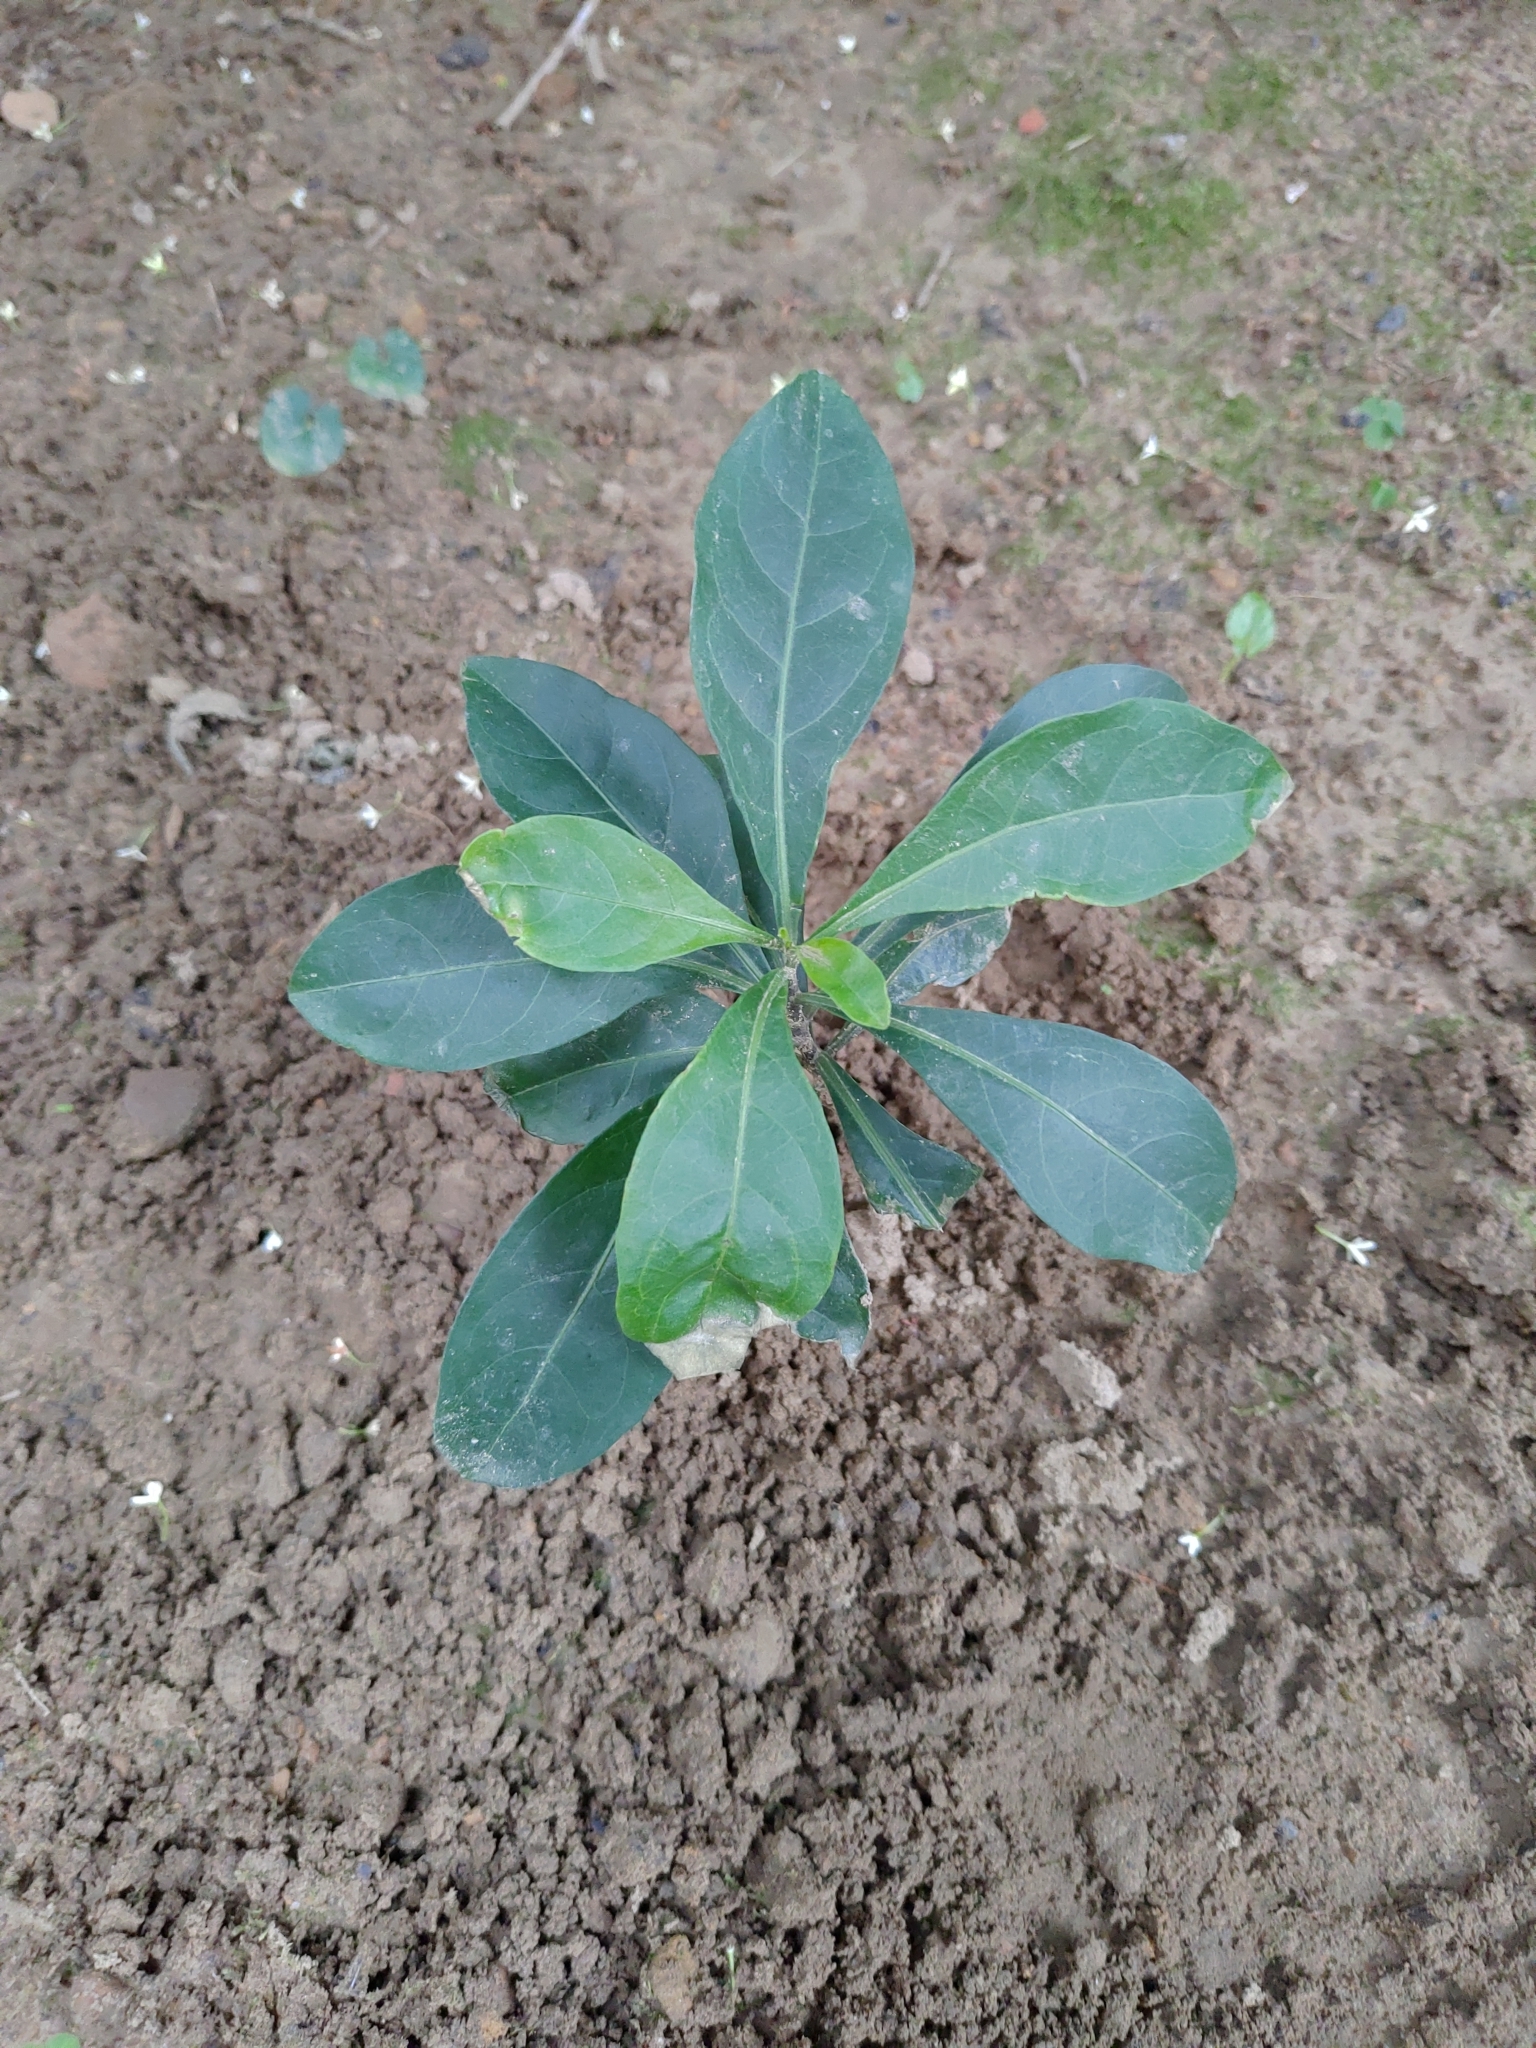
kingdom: Plantae
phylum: Tracheophyta
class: Magnoliopsida
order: Solanales
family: Solanaceae
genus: Solanum
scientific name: Solanum diphyllum
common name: Twoleaf nightshade
